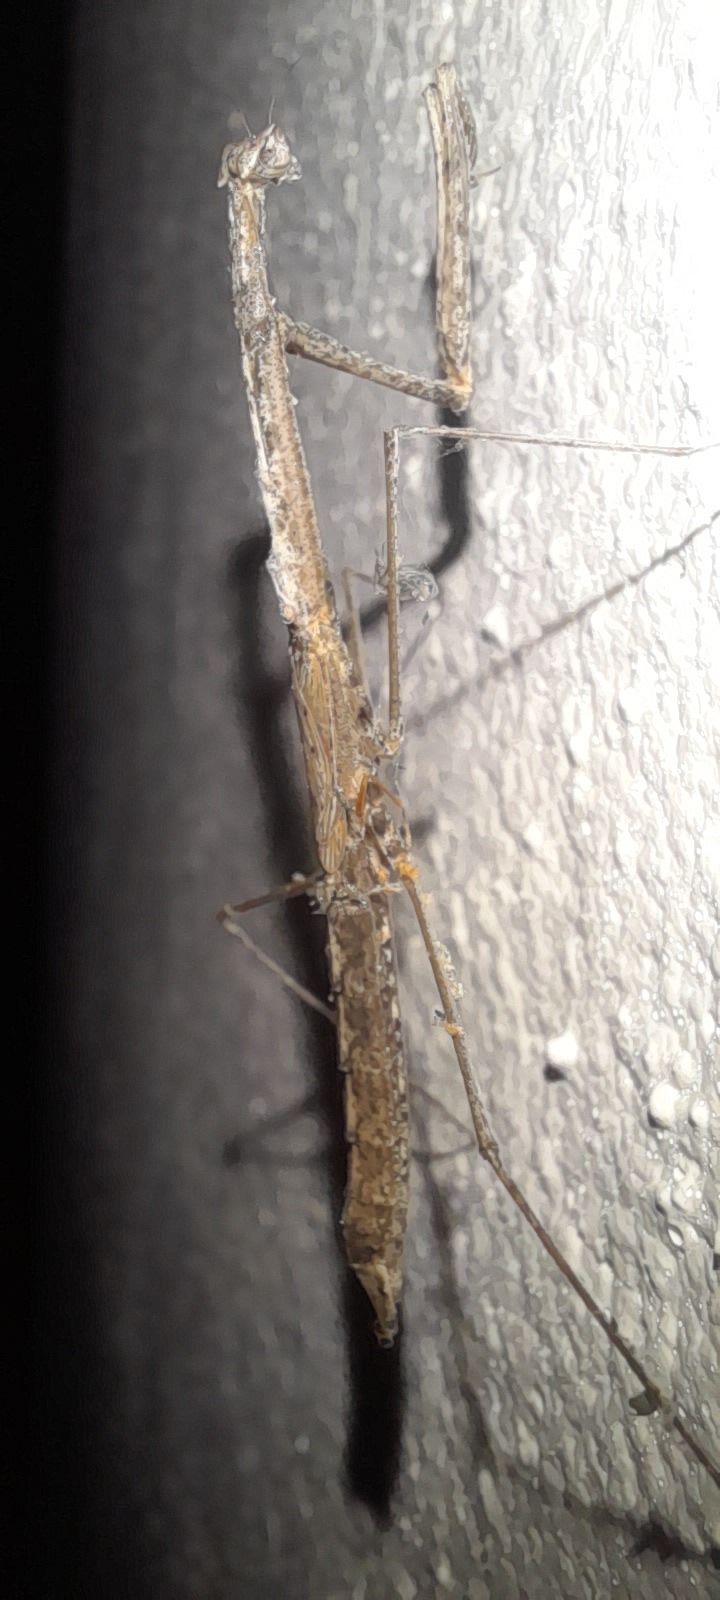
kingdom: Animalia
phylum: Arthropoda
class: Insecta
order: Mantodea
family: Eremiaphilidae
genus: Parathespis
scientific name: Parathespis humbertiana
